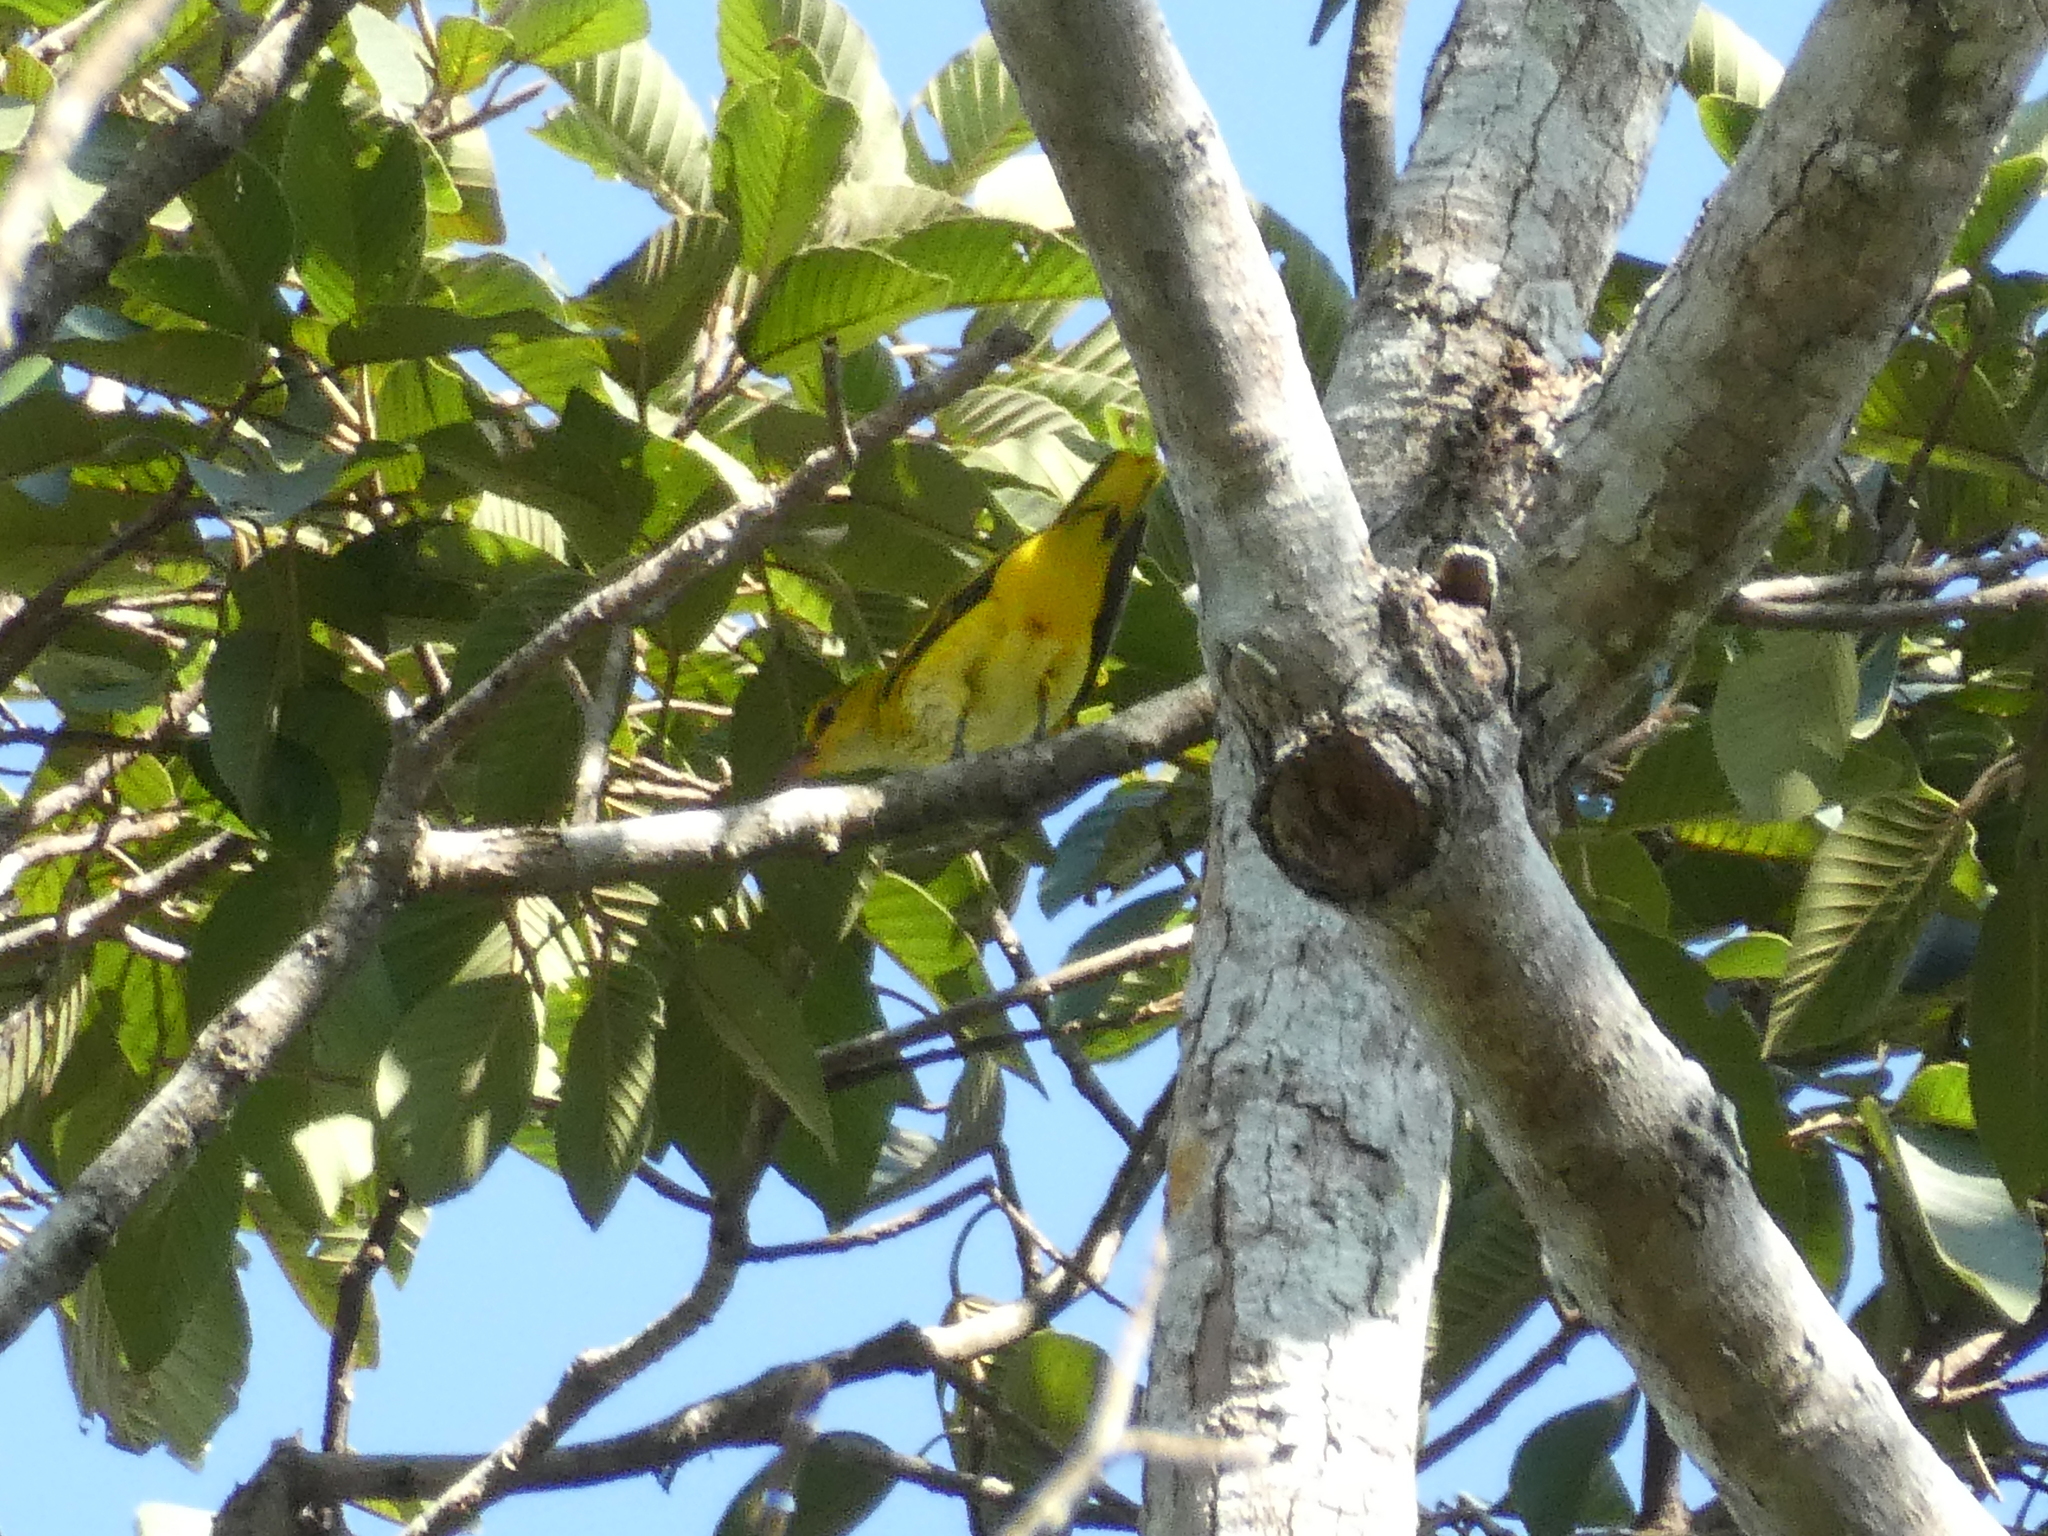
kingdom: Animalia
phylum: Chordata
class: Aves
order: Passeriformes
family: Oriolidae
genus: Oriolus
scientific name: Oriolus chinensis
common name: Black-naped oriole
